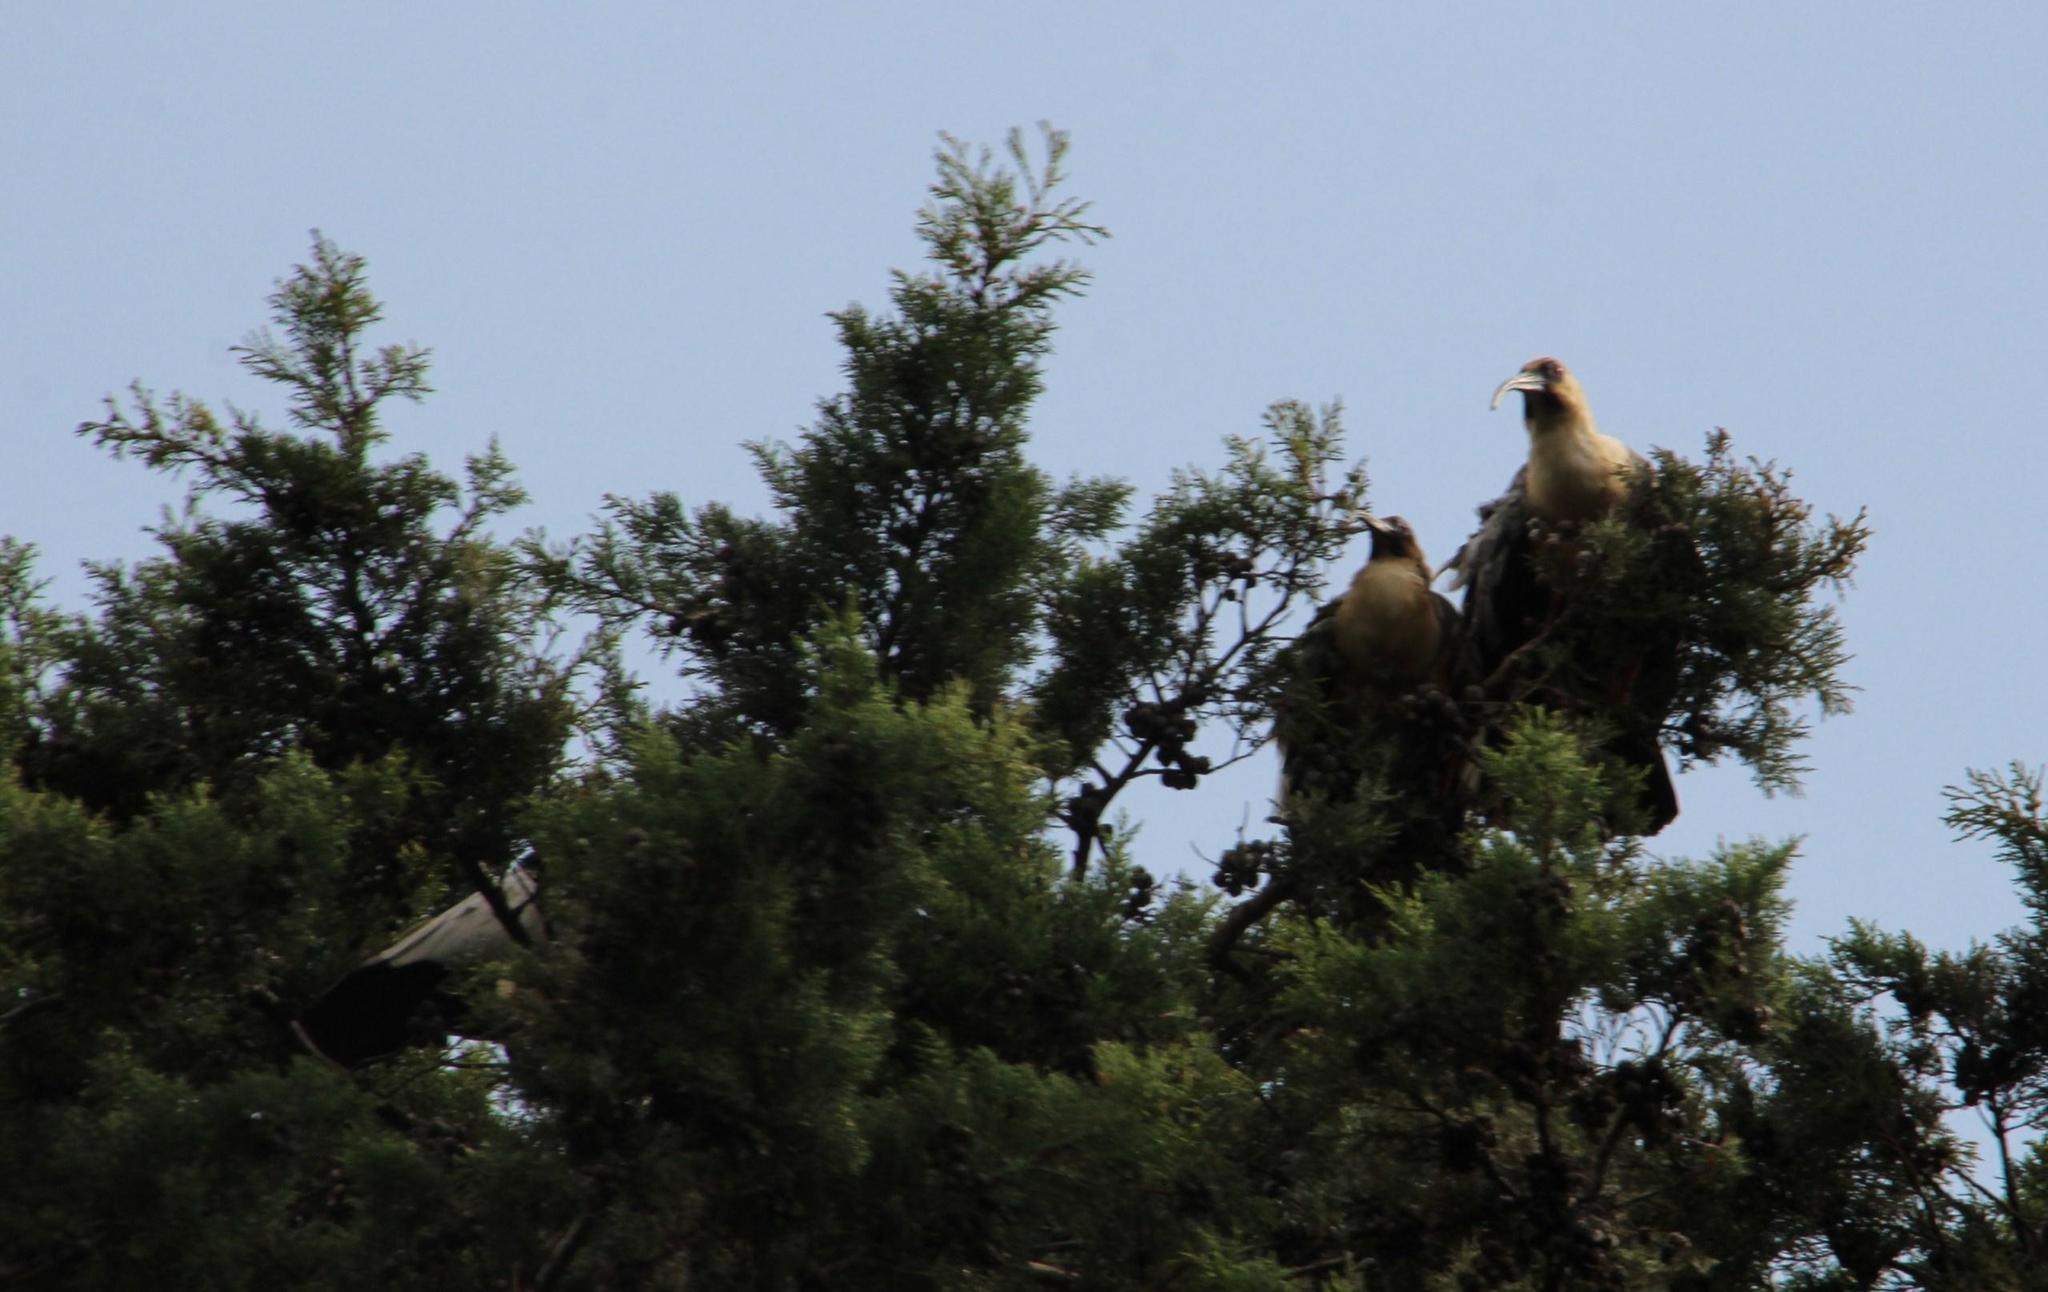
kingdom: Animalia
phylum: Chordata
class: Aves
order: Pelecaniformes
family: Threskiornithidae
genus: Theristicus
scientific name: Theristicus melanopis
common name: Black-faced ibis
